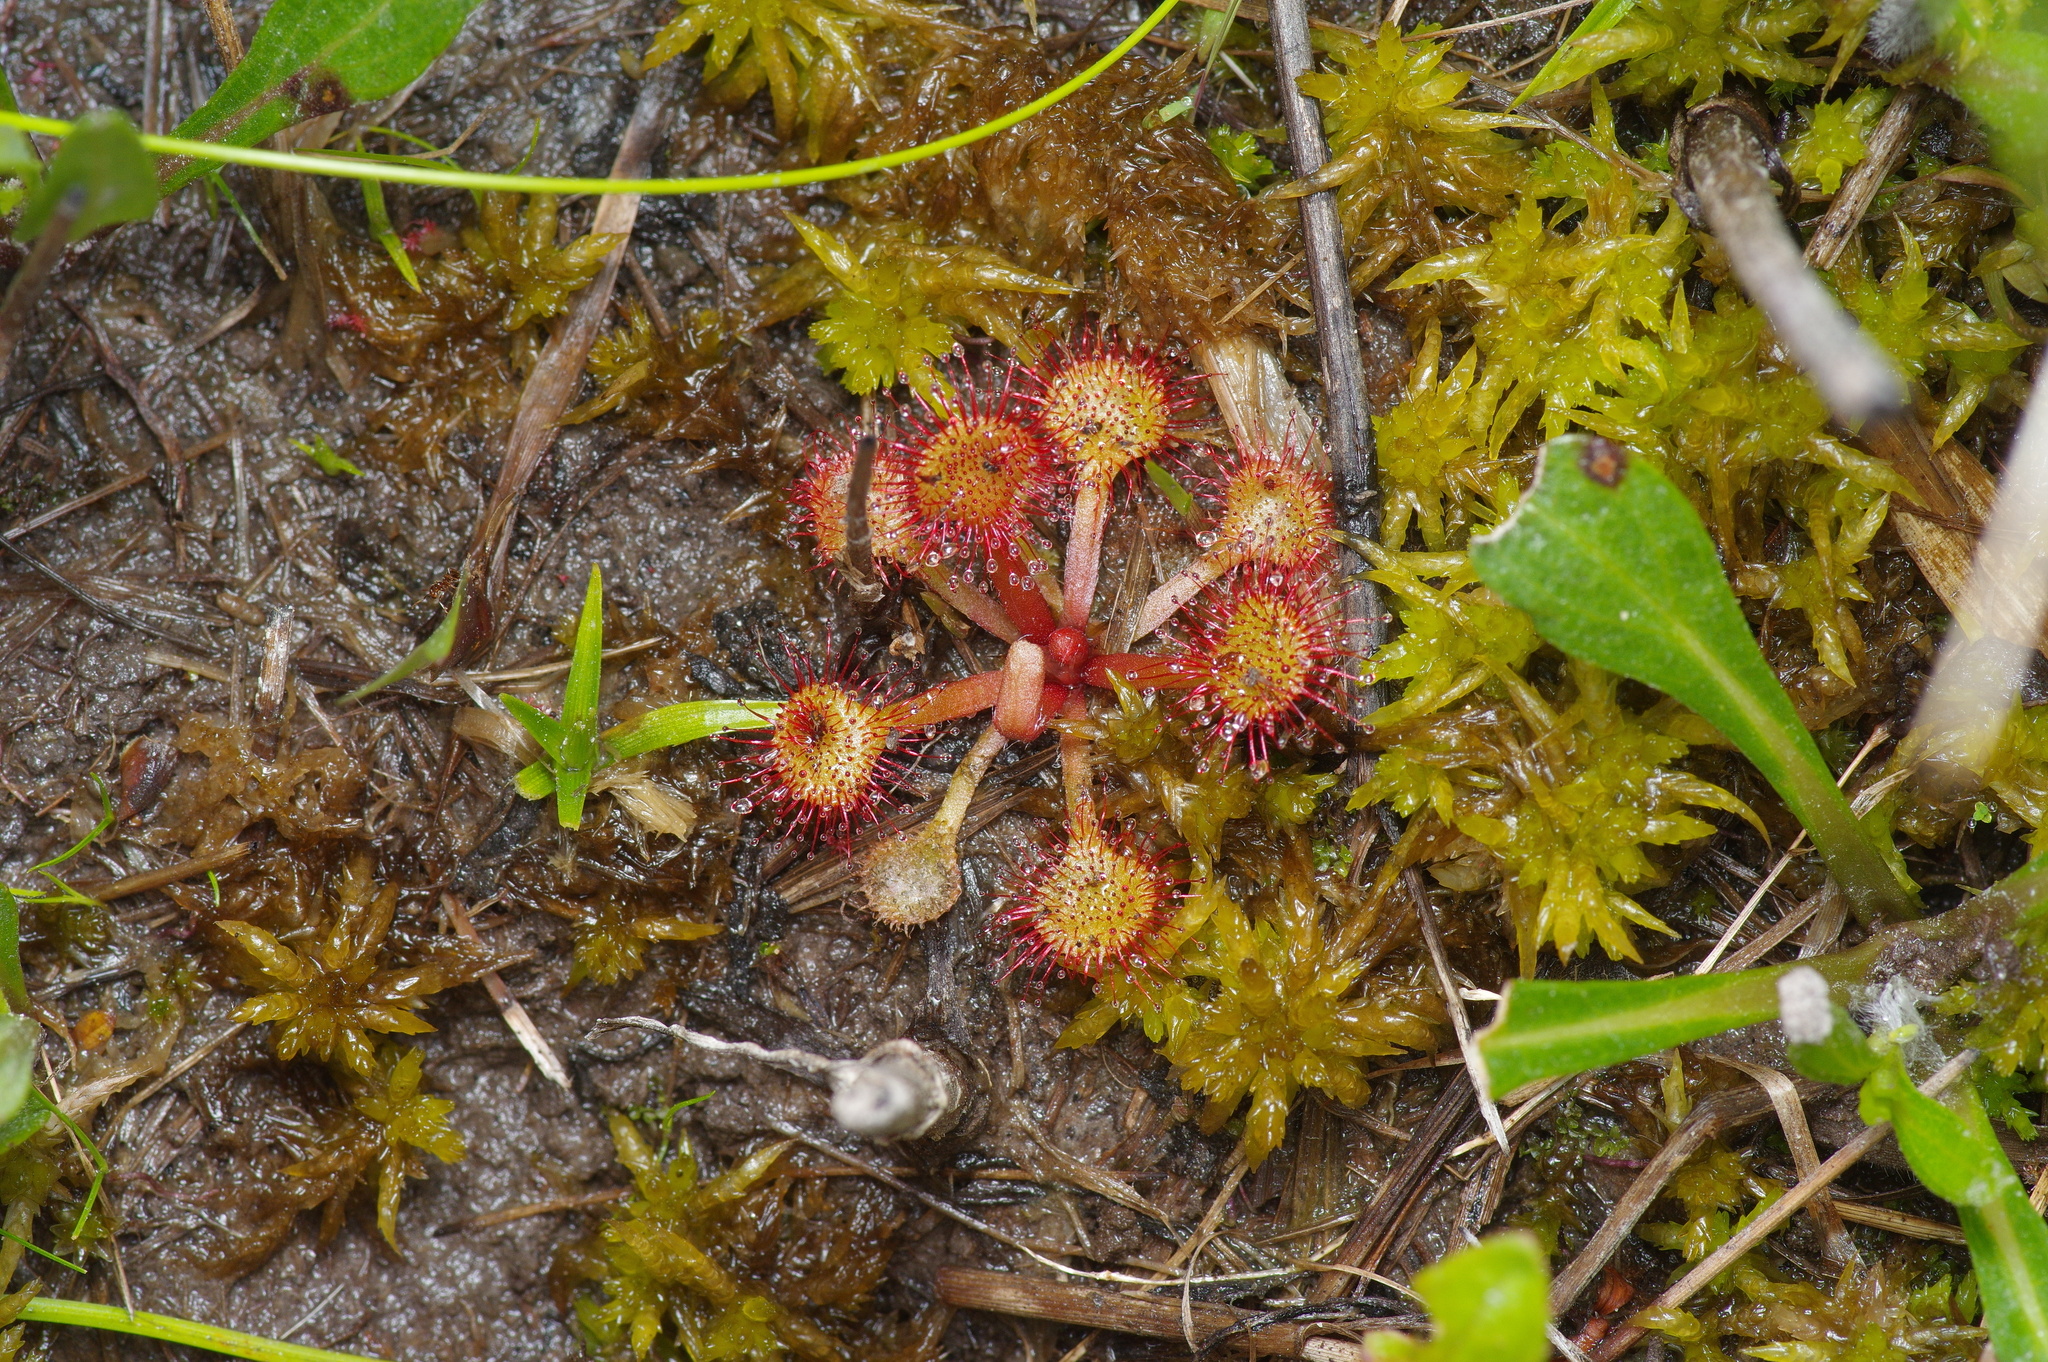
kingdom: Plantae
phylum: Tracheophyta
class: Magnoliopsida
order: Caryophyllales
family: Droseraceae
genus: Drosera
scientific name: Drosera capillaris
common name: Pink sundew
